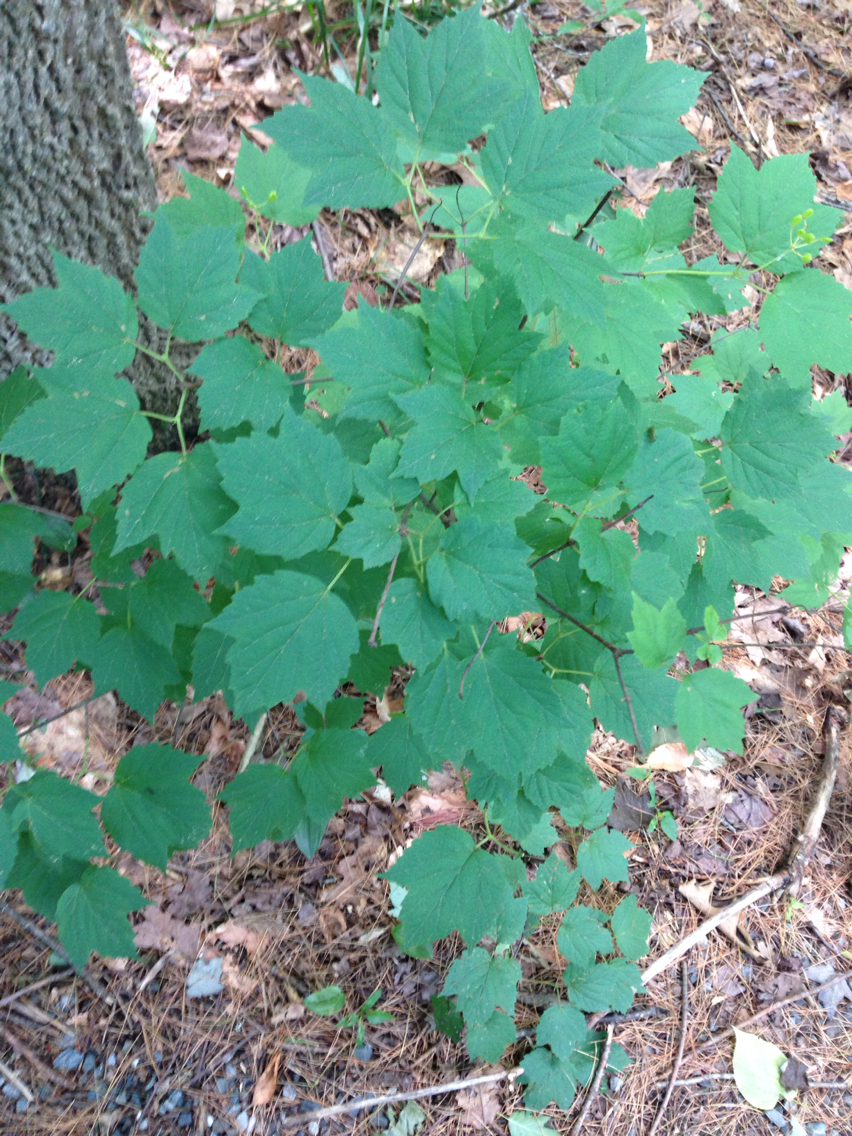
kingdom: Plantae
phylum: Tracheophyta
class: Magnoliopsida
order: Dipsacales
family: Viburnaceae
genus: Viburnum
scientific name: Viburnum acerifolium
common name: Dockmackie
